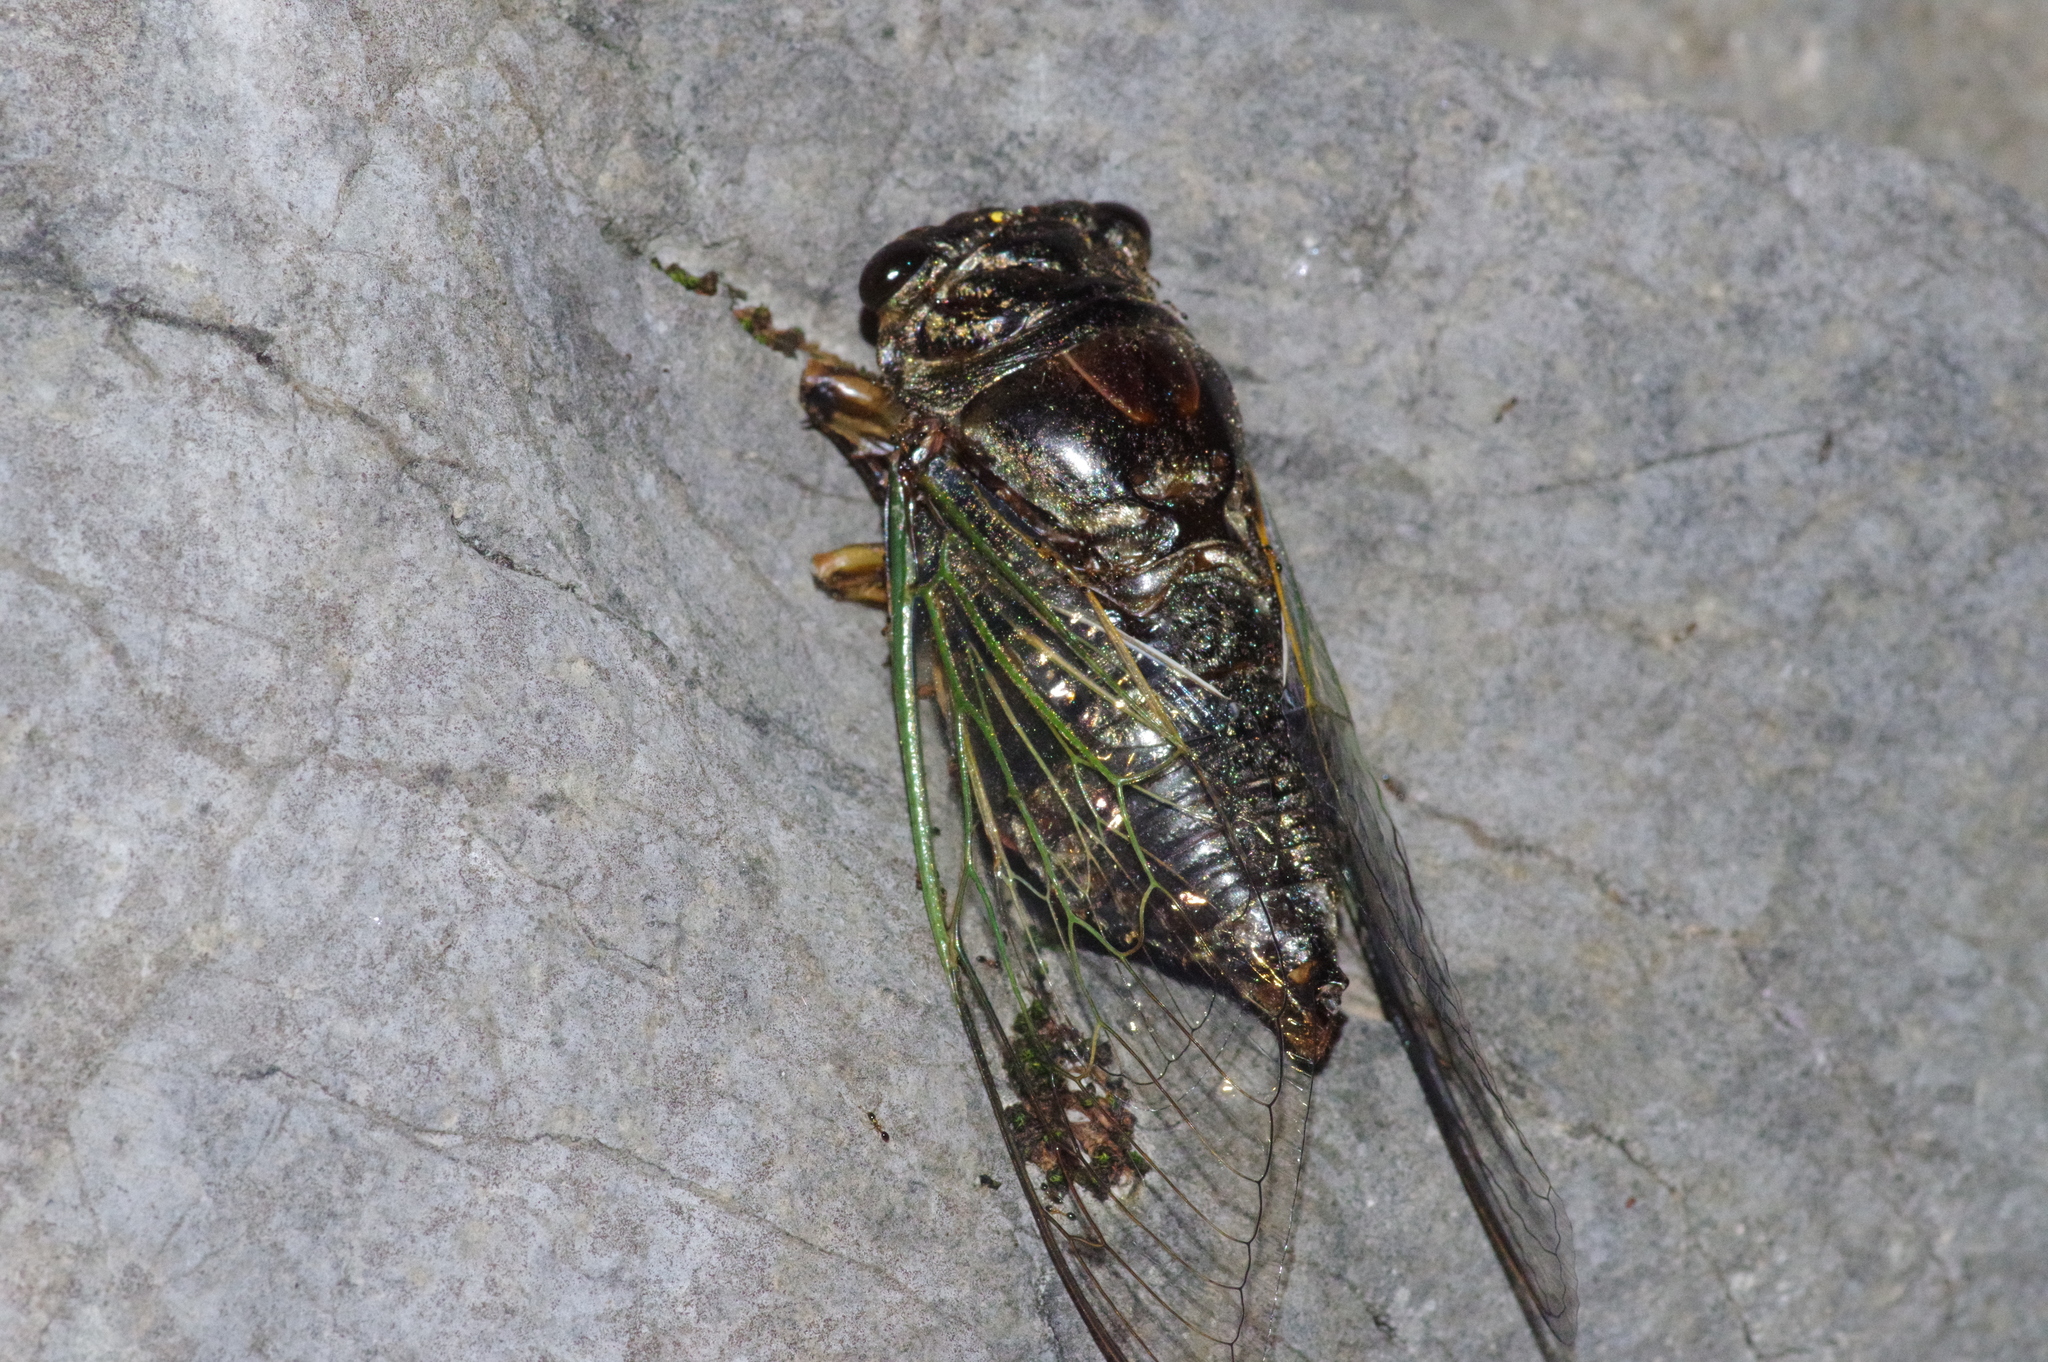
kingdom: Animalia
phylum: Arthropoda
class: Insecta
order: Hemiptera
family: Cicadidae
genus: Cryptotympana
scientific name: Cryptotympana facialis
